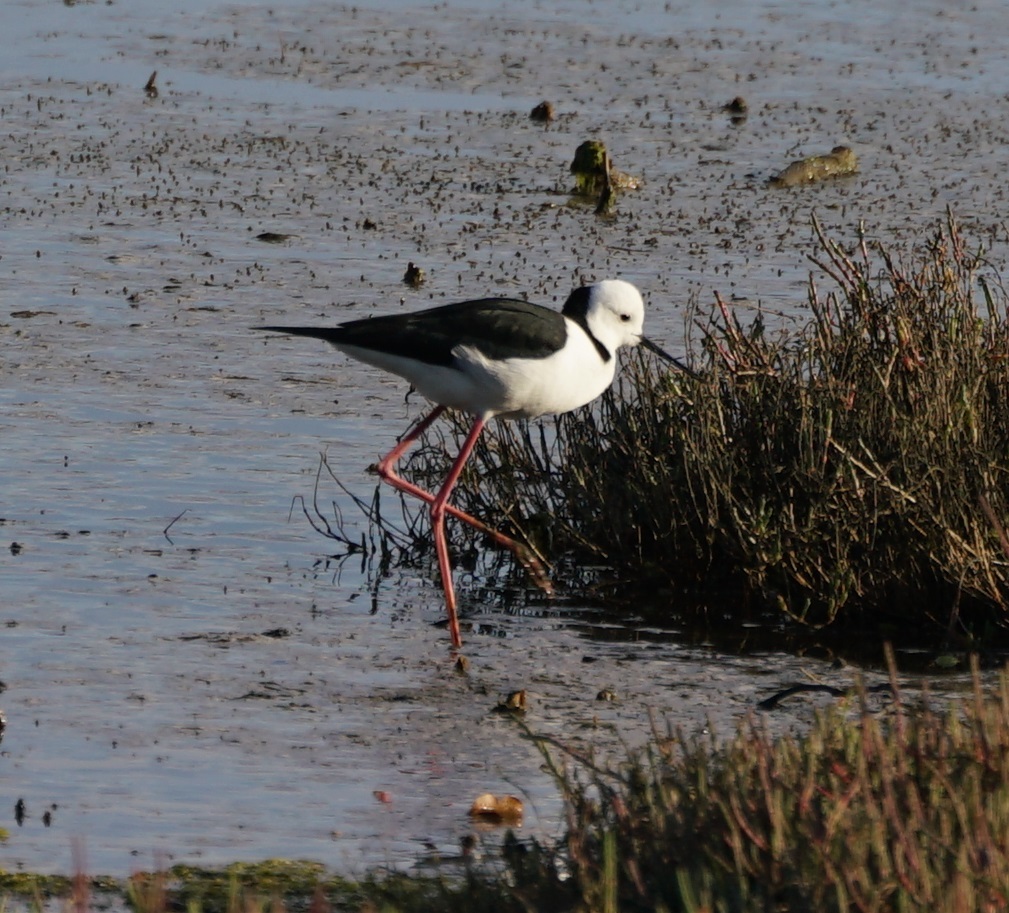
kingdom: Animalia
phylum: Chordata
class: Aves
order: Charadriiformes
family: Recurvirostridae
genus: Himantopus
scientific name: Himantopus leucocephalus
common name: White-headed stilt
